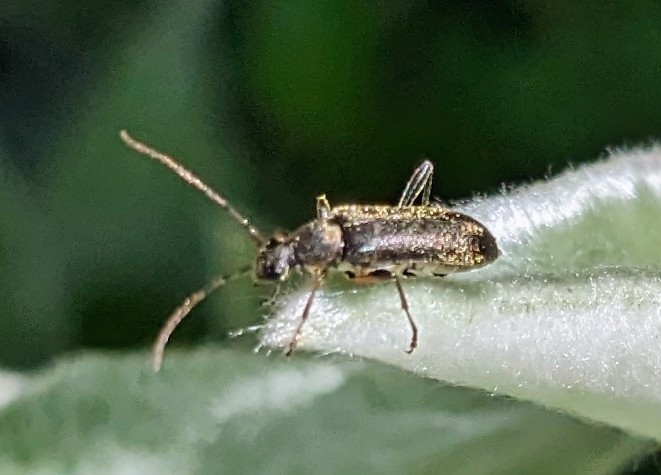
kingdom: Animalia
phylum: Arthropoda
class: Insecta
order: Coleoptera
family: Cerambycidae
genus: Grammoptera
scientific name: Grammoptera ruficornis
